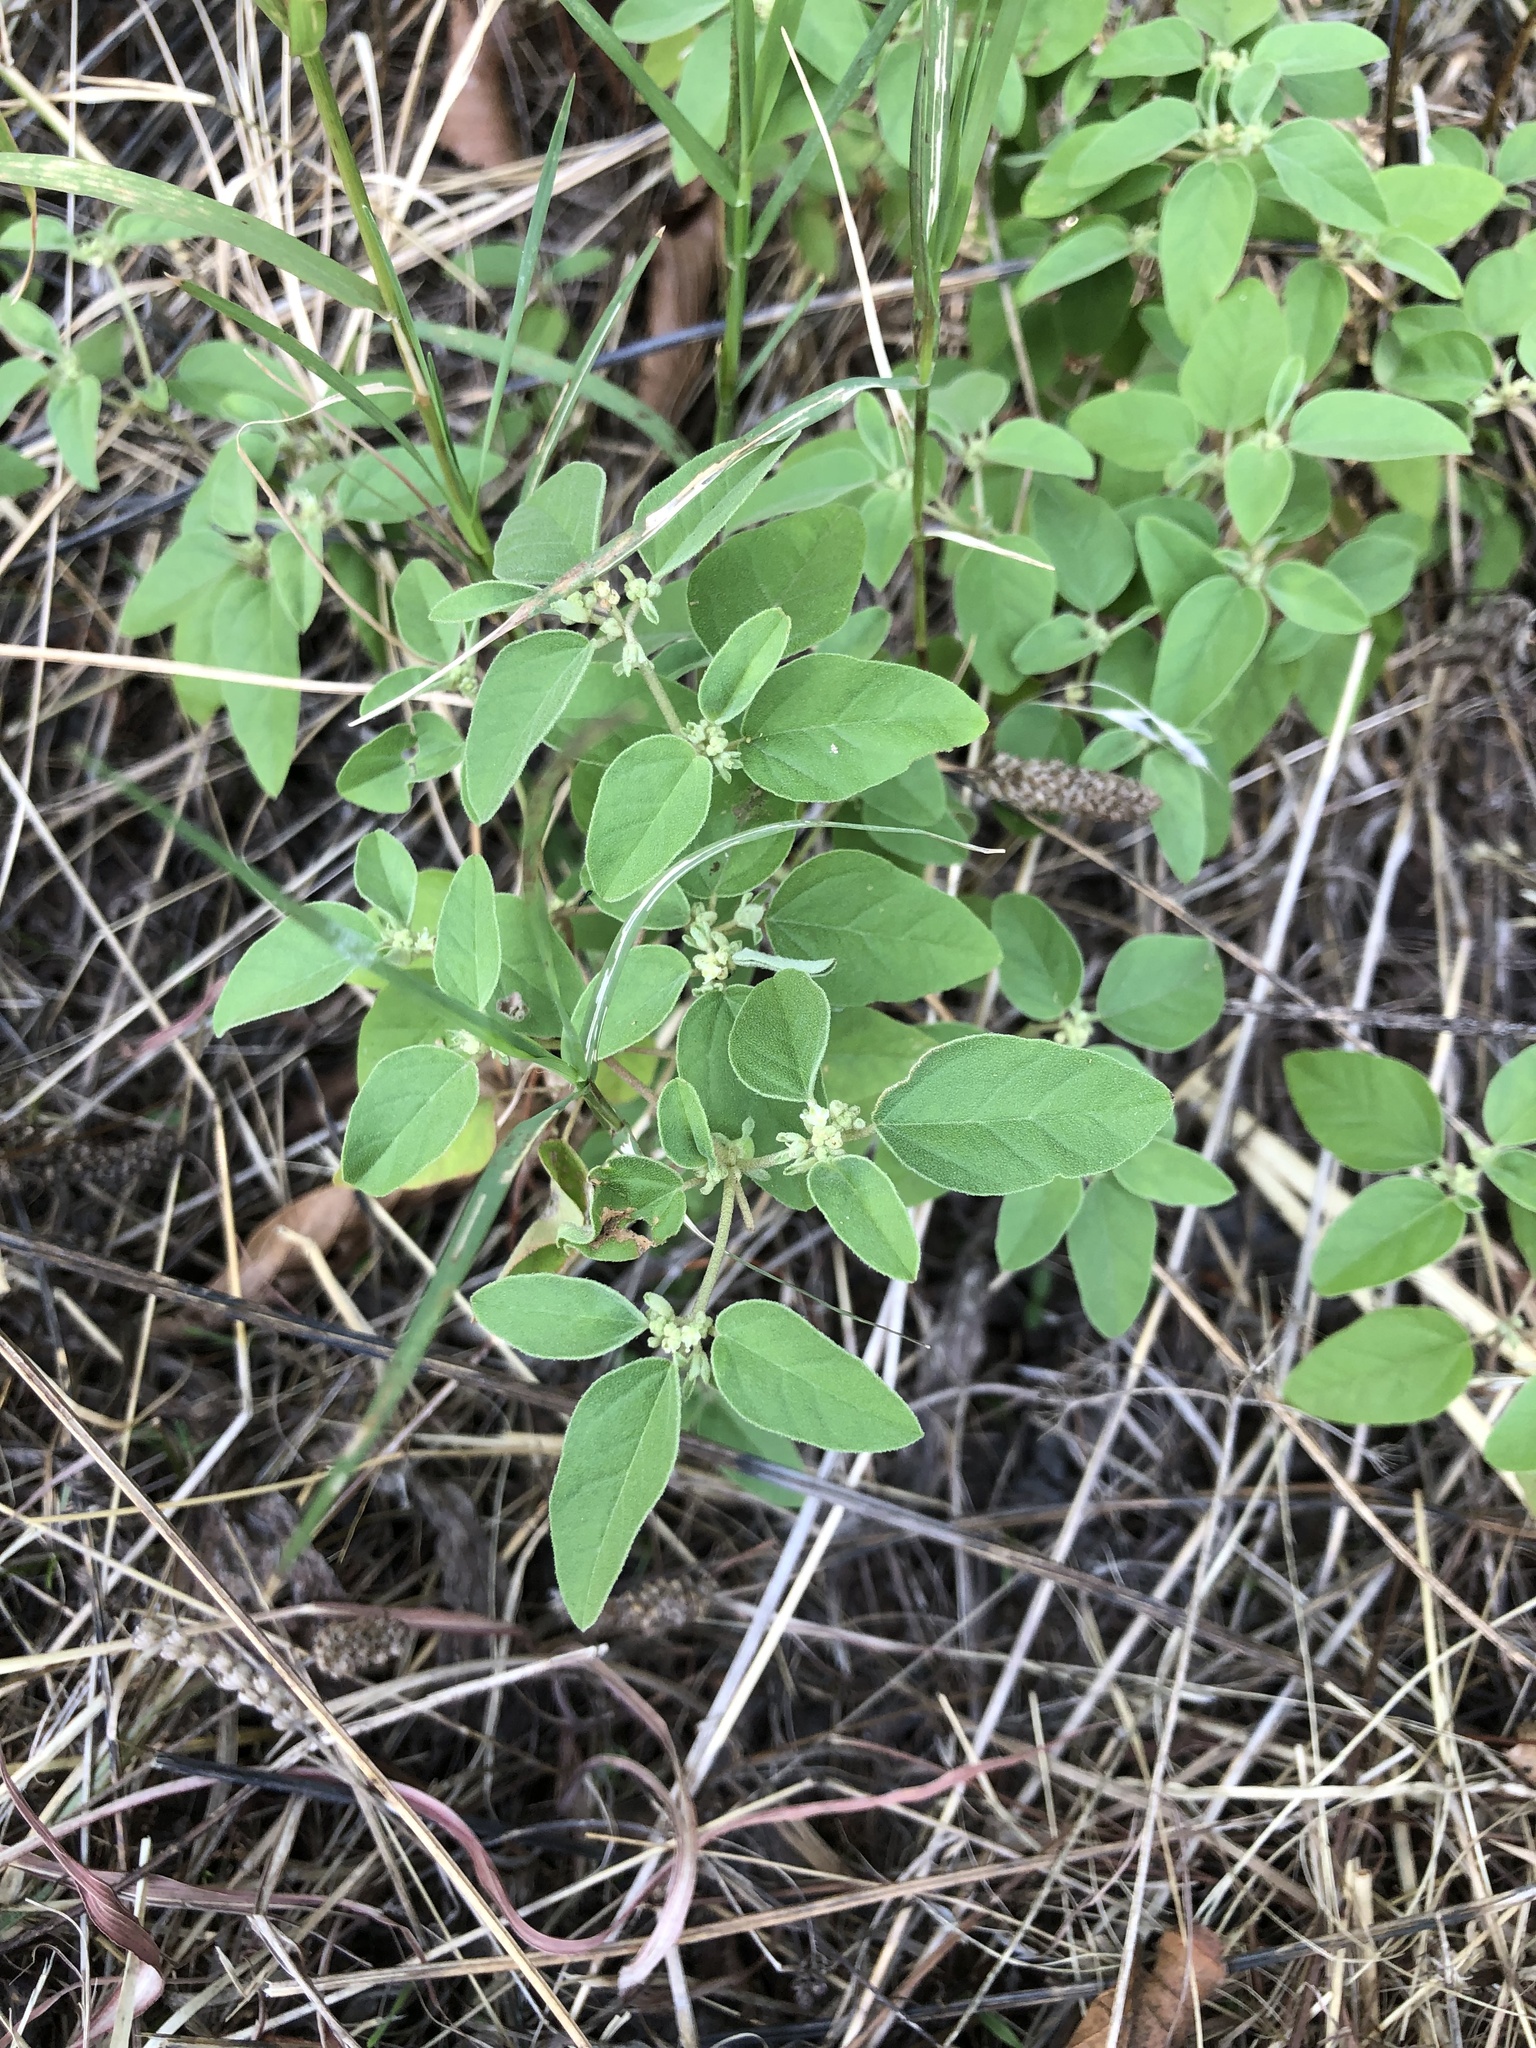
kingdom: Plantae
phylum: Tracheophyta
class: Magnoliopsida
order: Malpighiales
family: Euphorbiaceae
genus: Croton
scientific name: Croton monanthogynus
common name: One-seed croton
